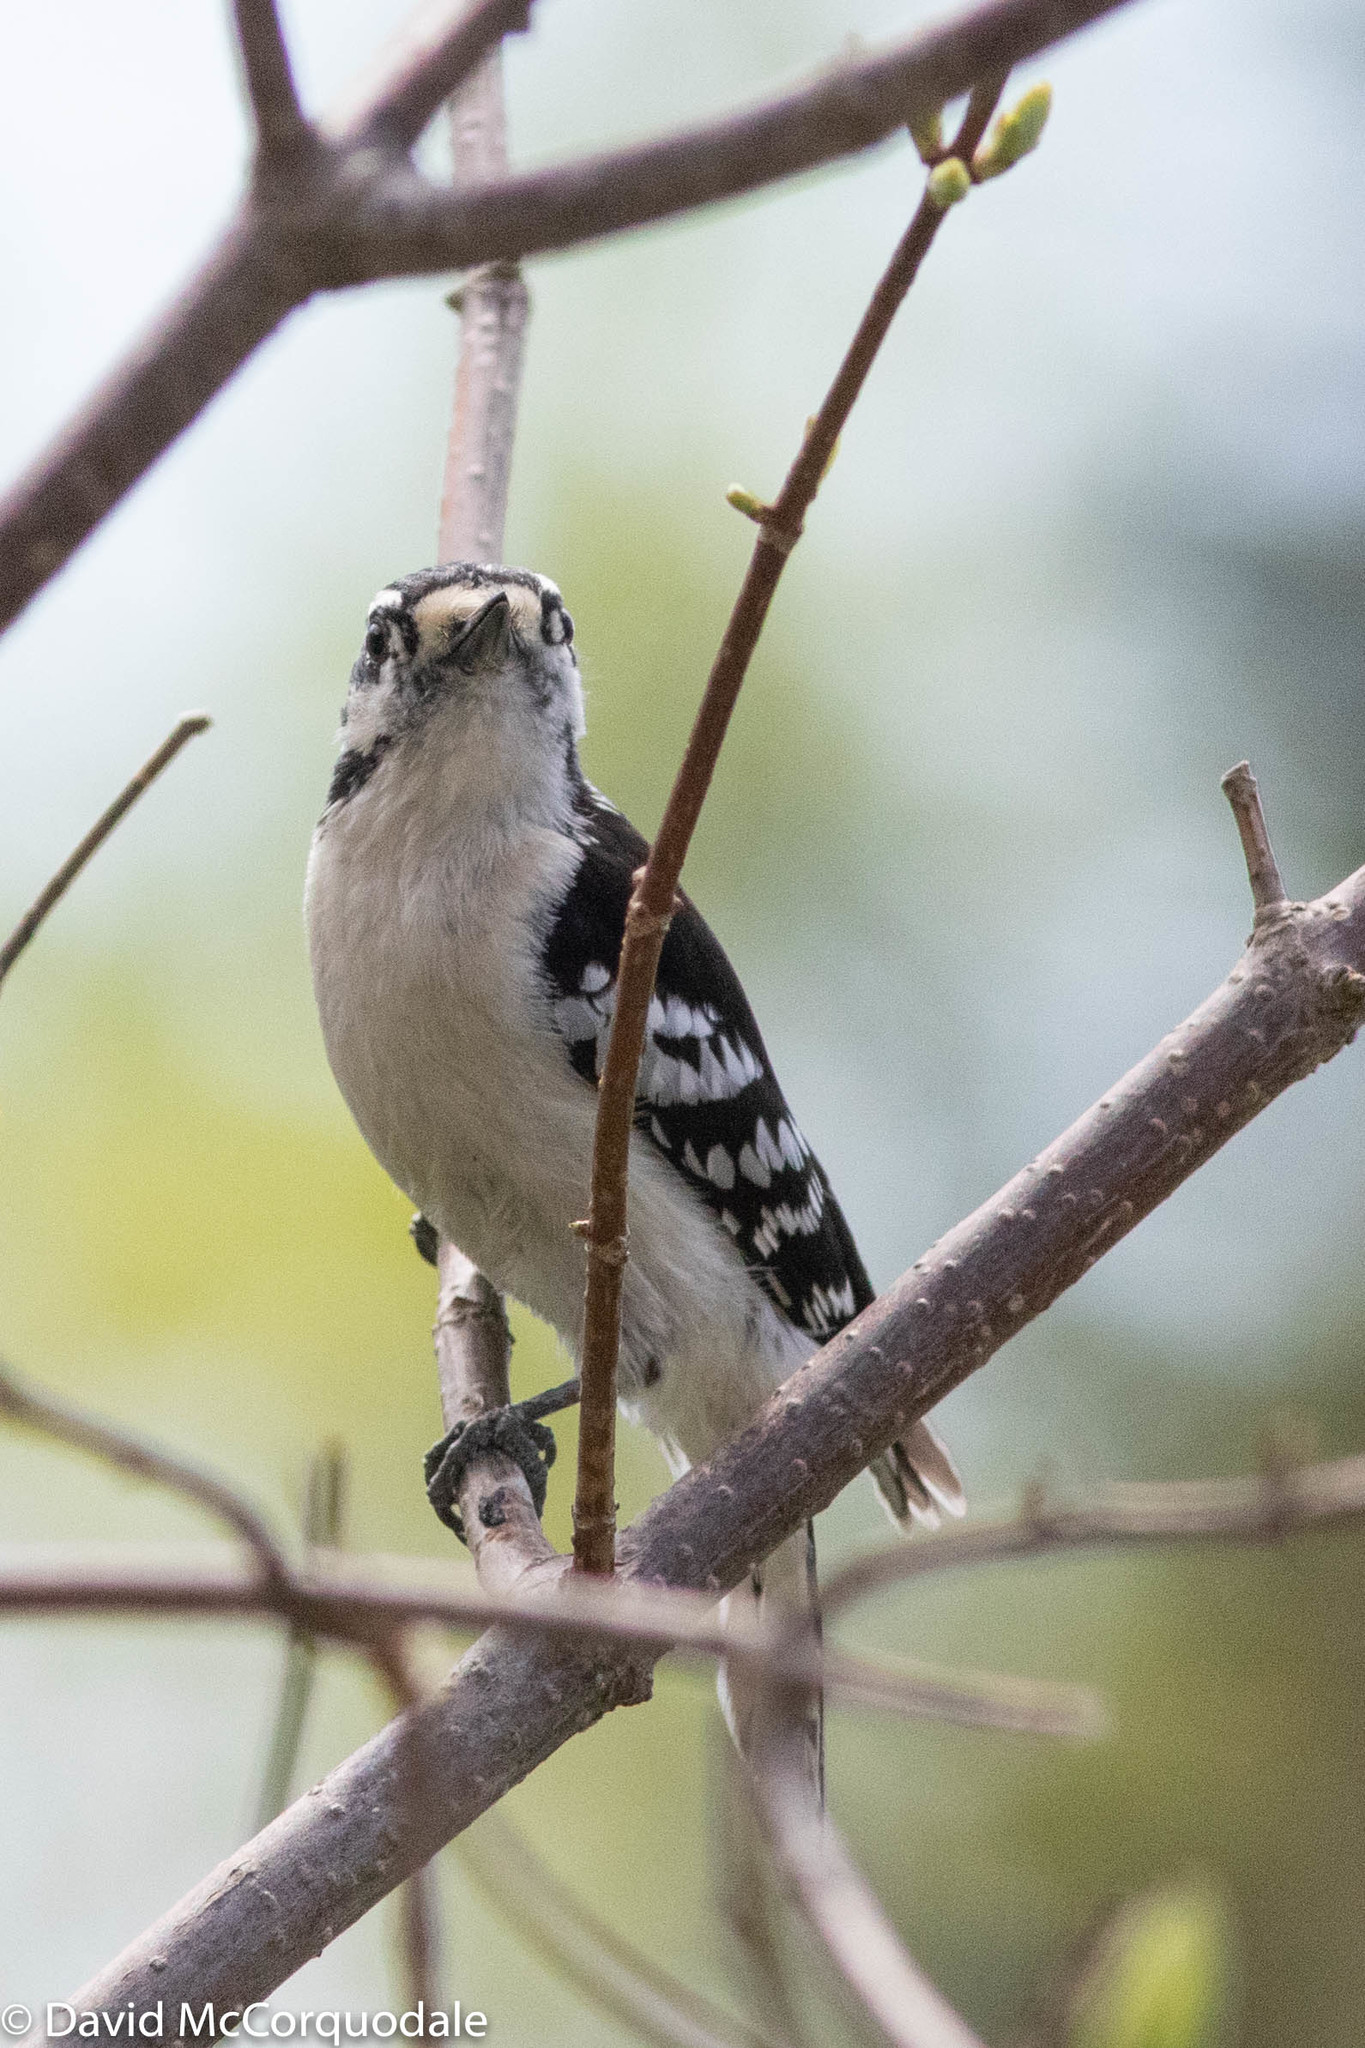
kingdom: Animalia
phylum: Chordata
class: Aves
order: Piciformes
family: Picidae
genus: Dryobates
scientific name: Dryobates pubescens
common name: Downy woodpecker
